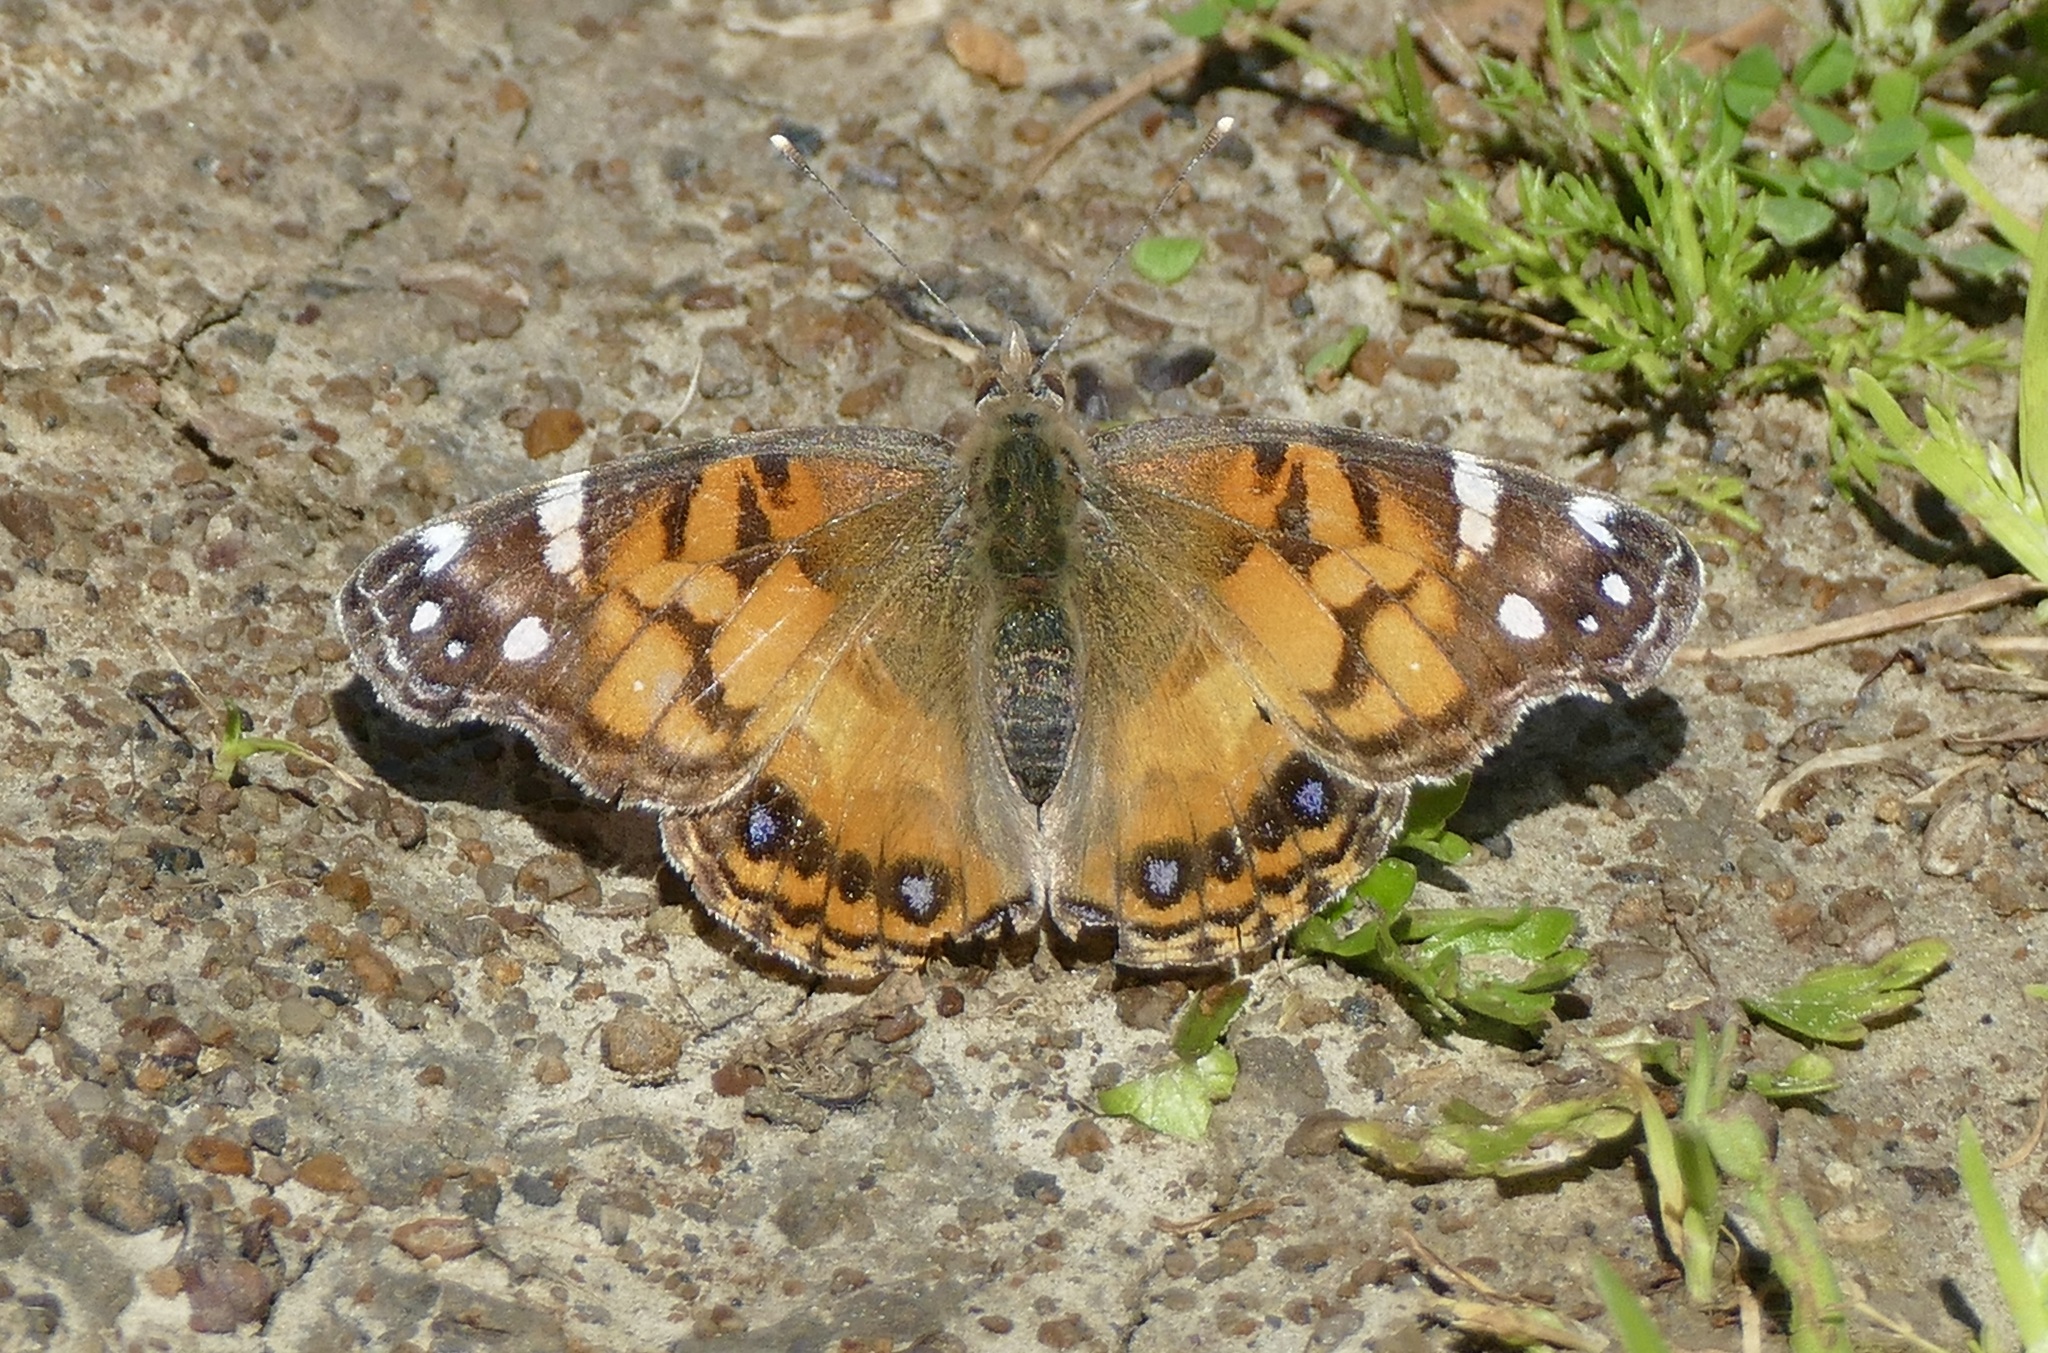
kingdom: Animalia
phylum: Arthropoda
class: Insecta
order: Lepidoptera
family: Nymphalidae
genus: Vanessa
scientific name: Vanessa virginiensis
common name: American lady
